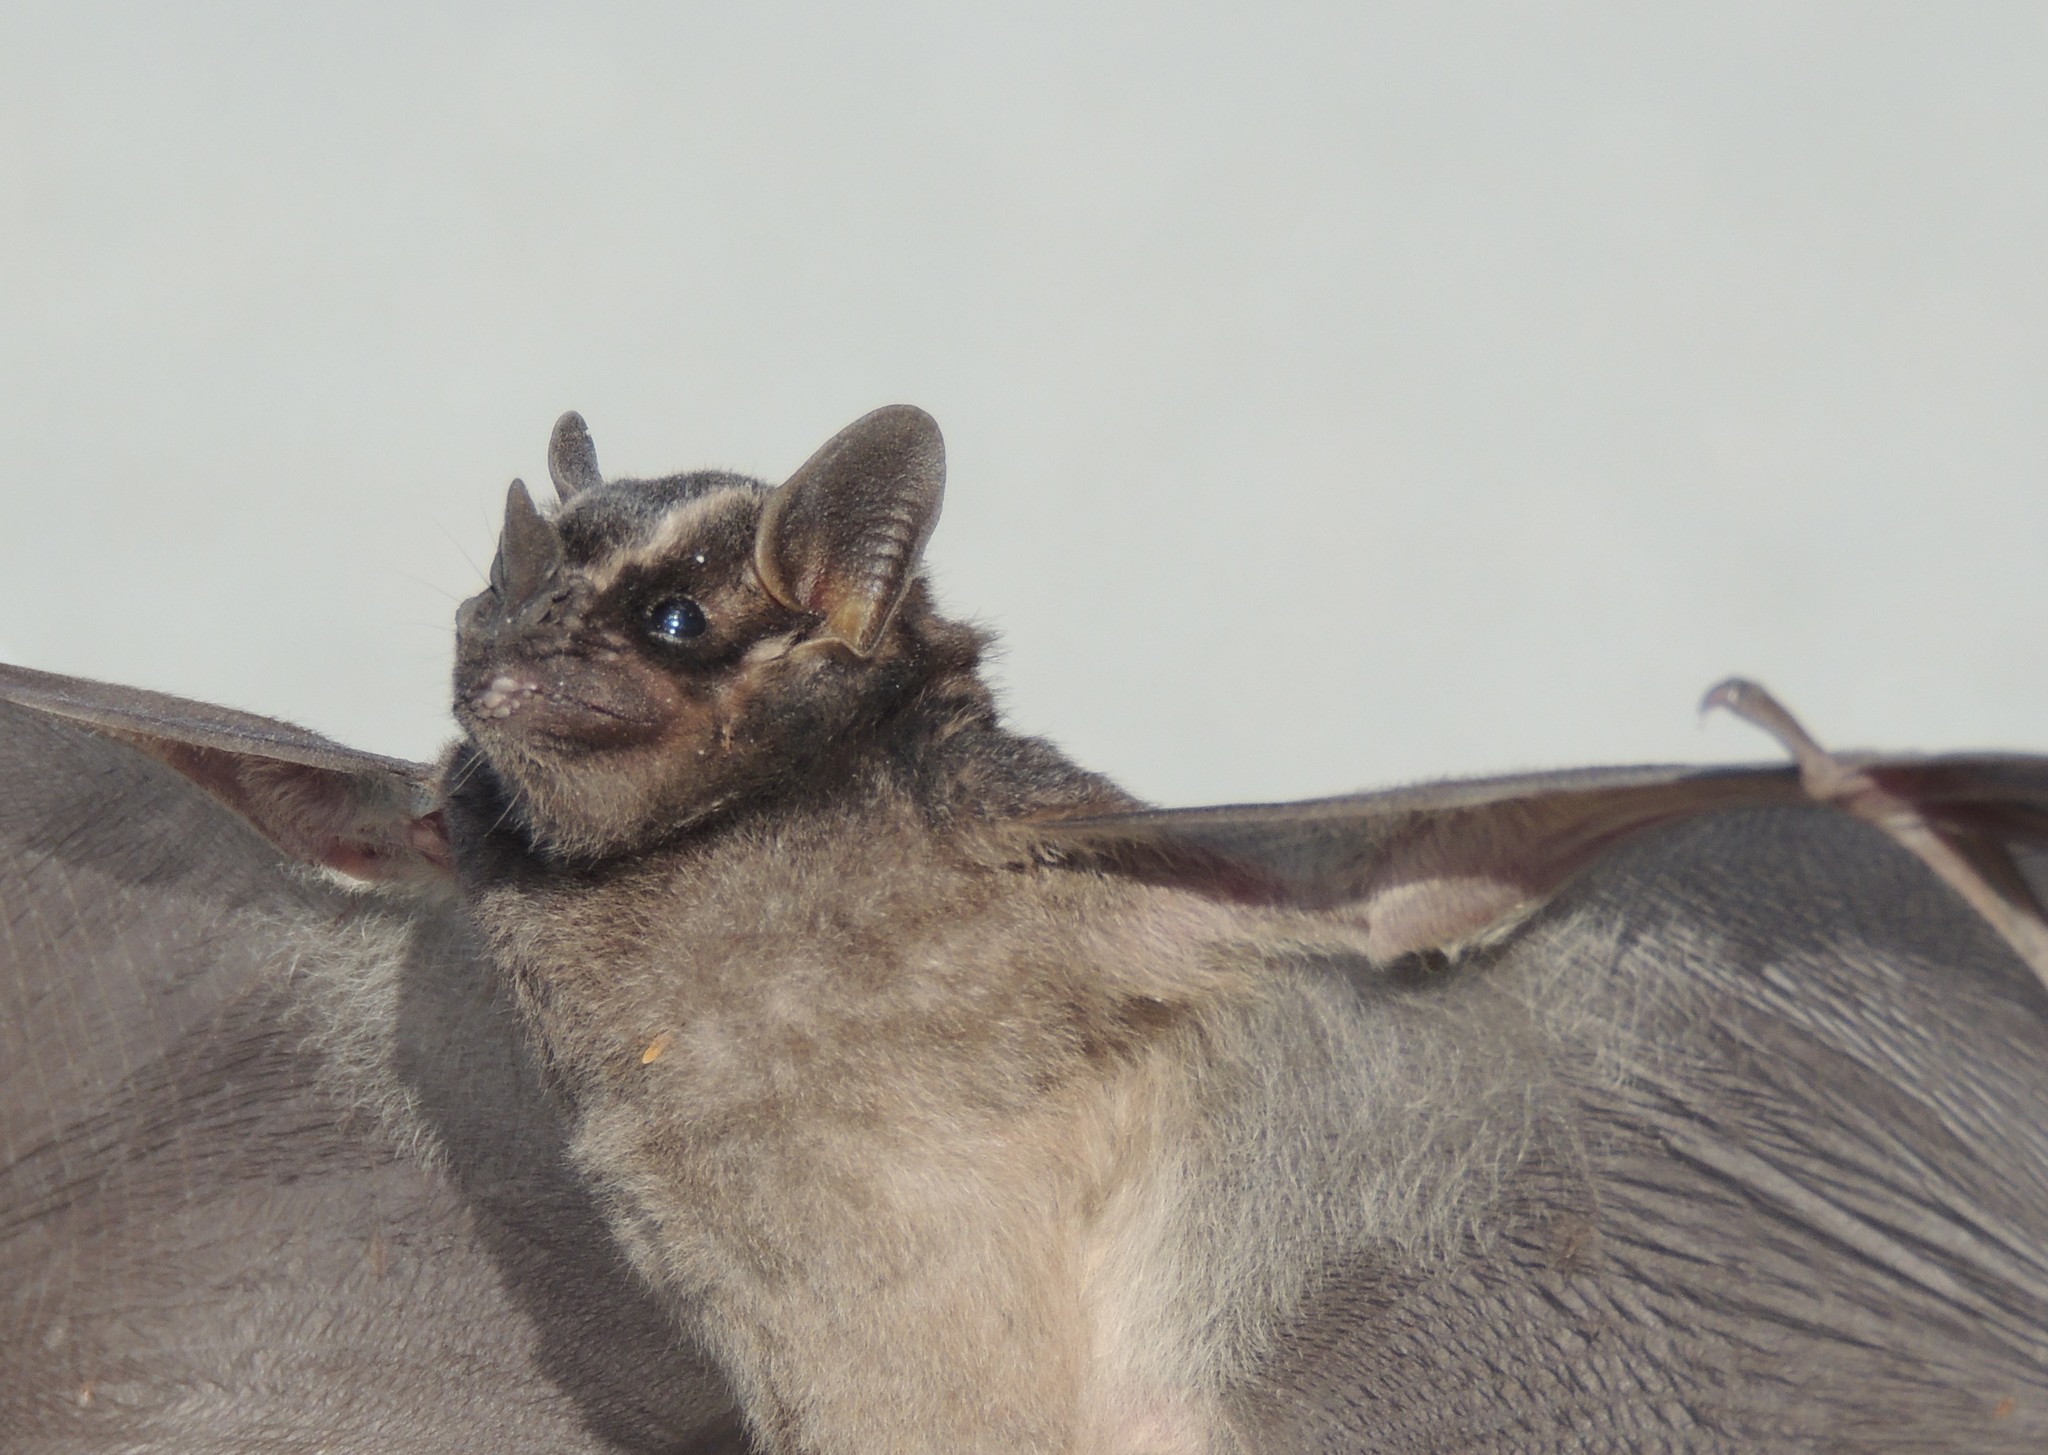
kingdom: Animalia
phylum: Chordata
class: Mammalia
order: Chiroptera
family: Phyllostomidae
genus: Enchisthenes
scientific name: Enchisthenes hartii
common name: Velvety fruit-eating bat
